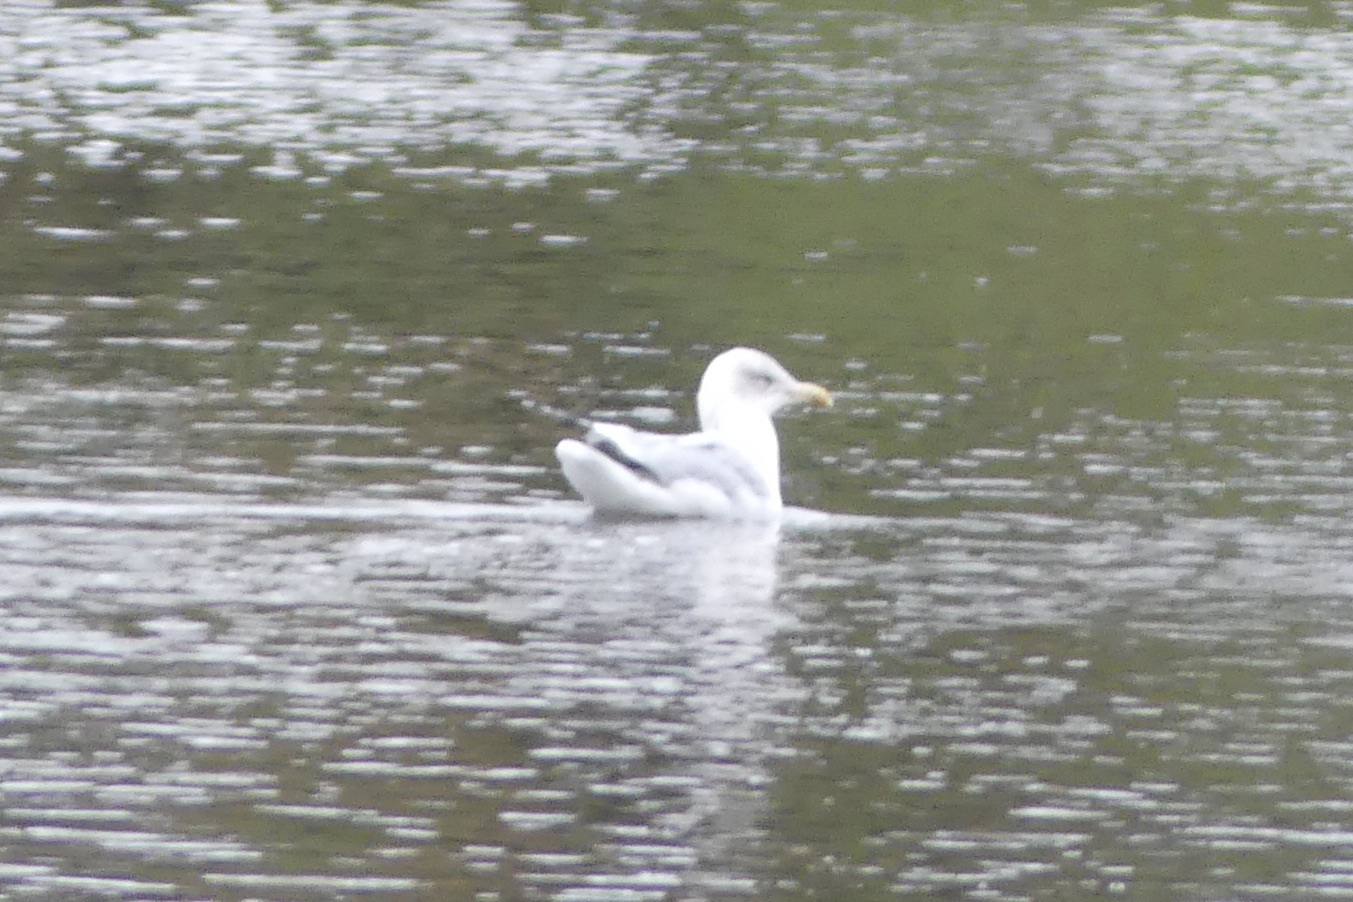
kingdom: Animalia
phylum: Chordata
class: Aves
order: Charadriiformes
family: Laridae
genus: Larus
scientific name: Larus argentatus
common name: Herring gull
